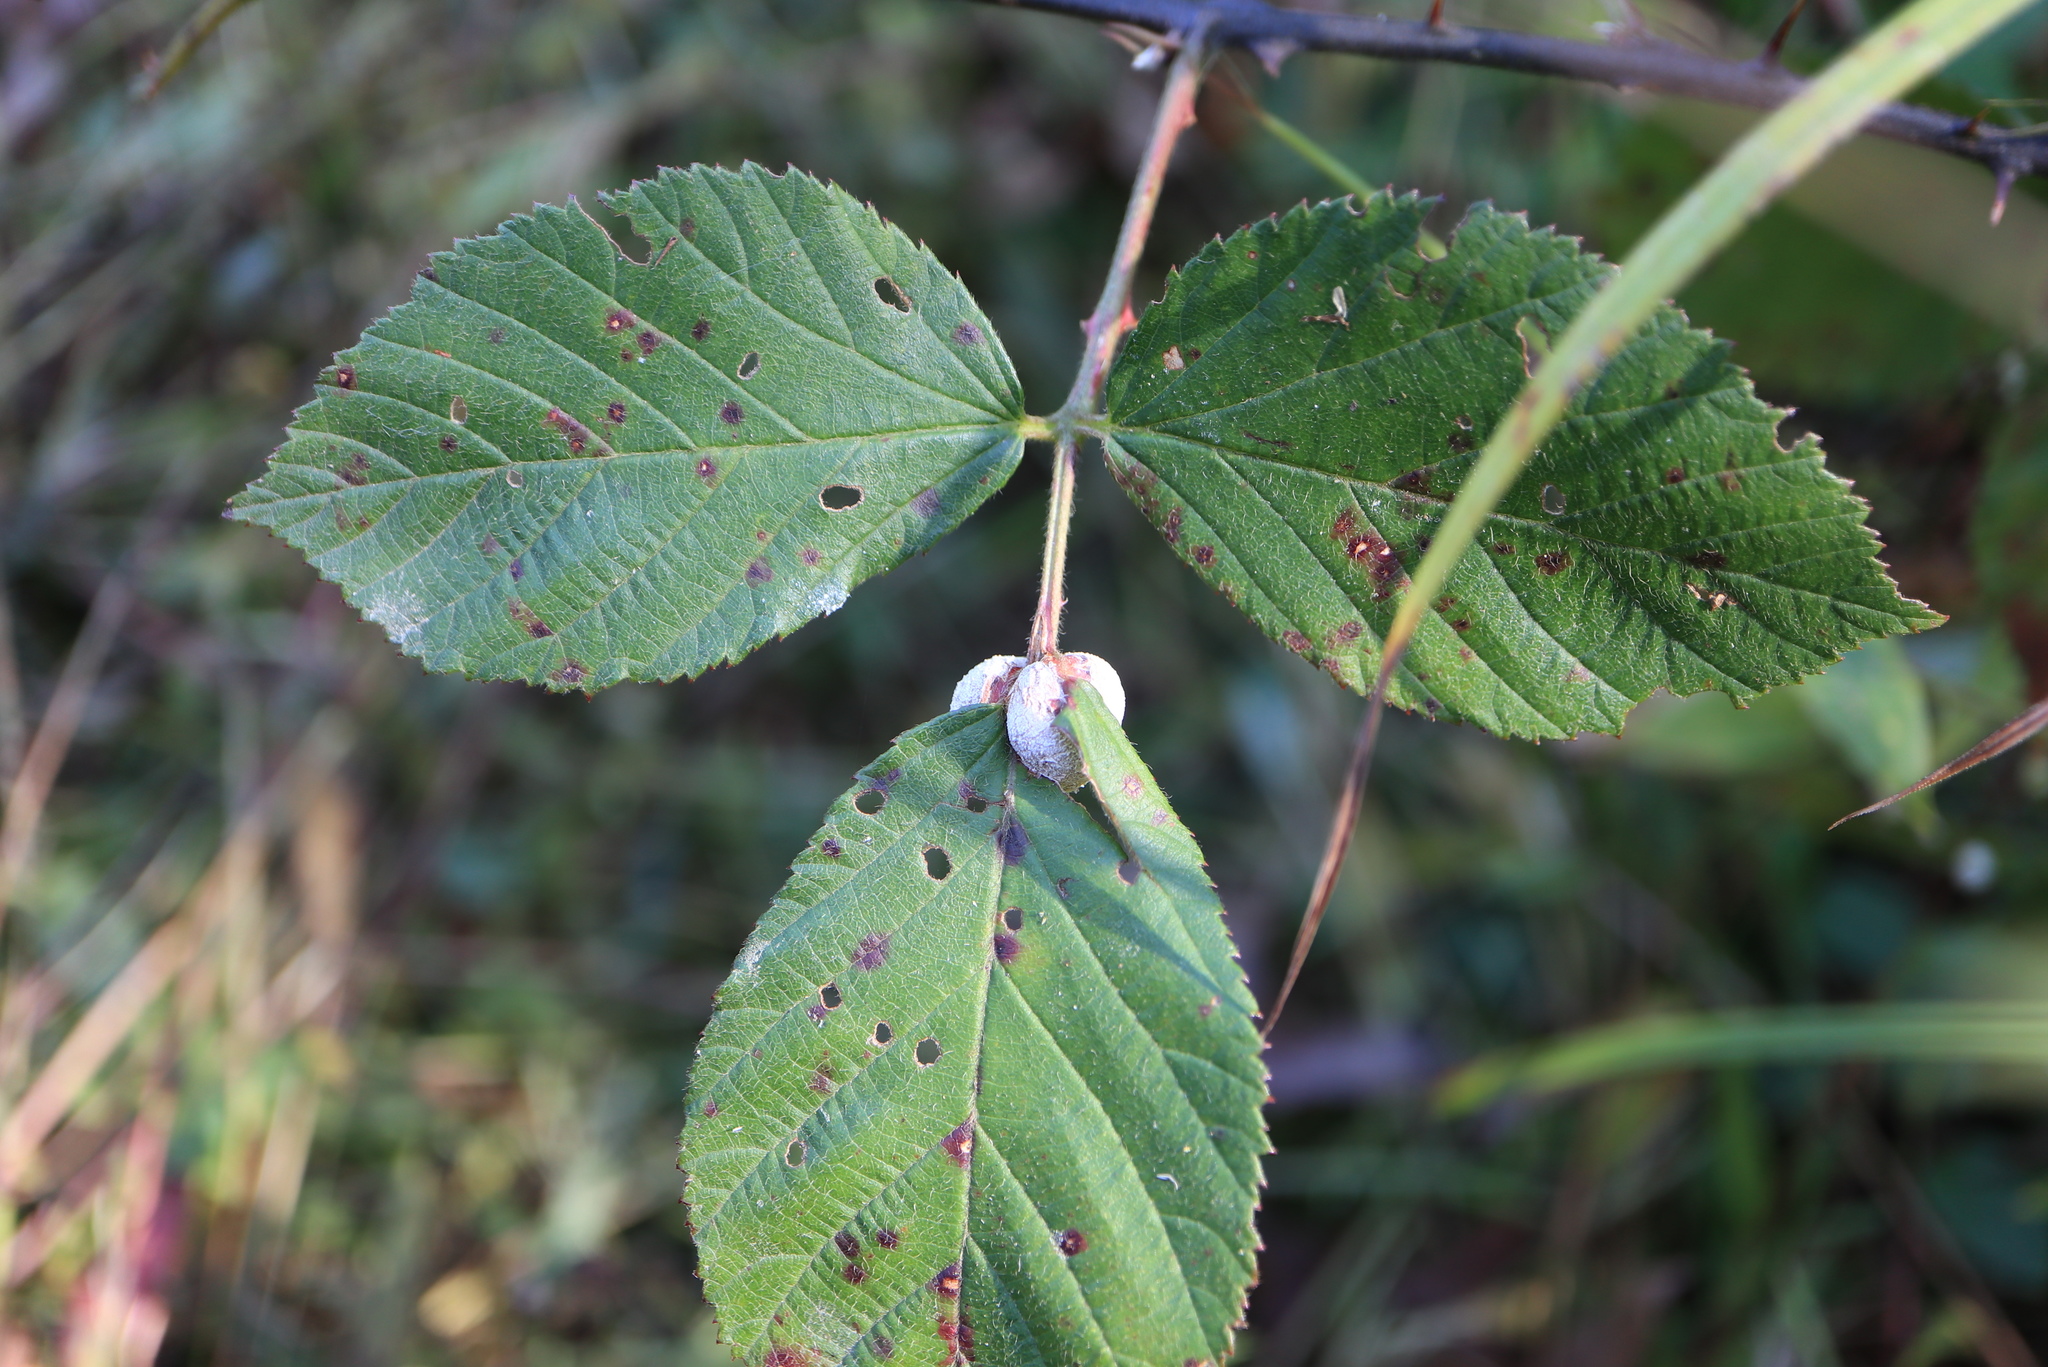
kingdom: Animalia
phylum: Arthropoda
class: Insecta
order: Diptera
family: Cecidomyiidae
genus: Neolasioptera
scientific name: Neolasioptera farinosa
